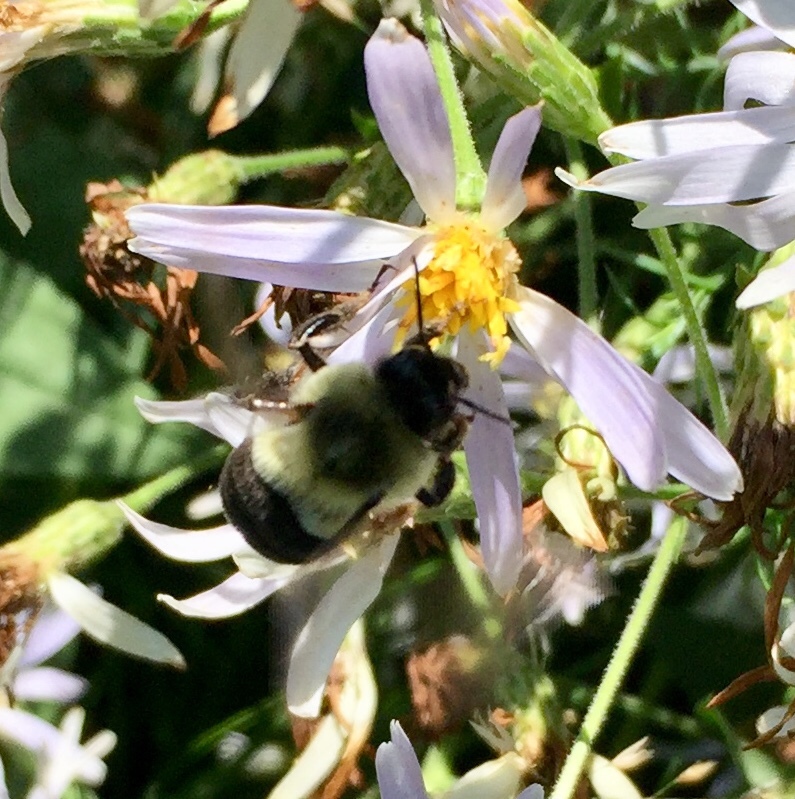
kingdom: Animalia
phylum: Arthropoda
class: Insecta
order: Hymenoptera
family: Apidae
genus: Bombus
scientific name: Bombus impatiens
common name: Common eastern bumble bee
